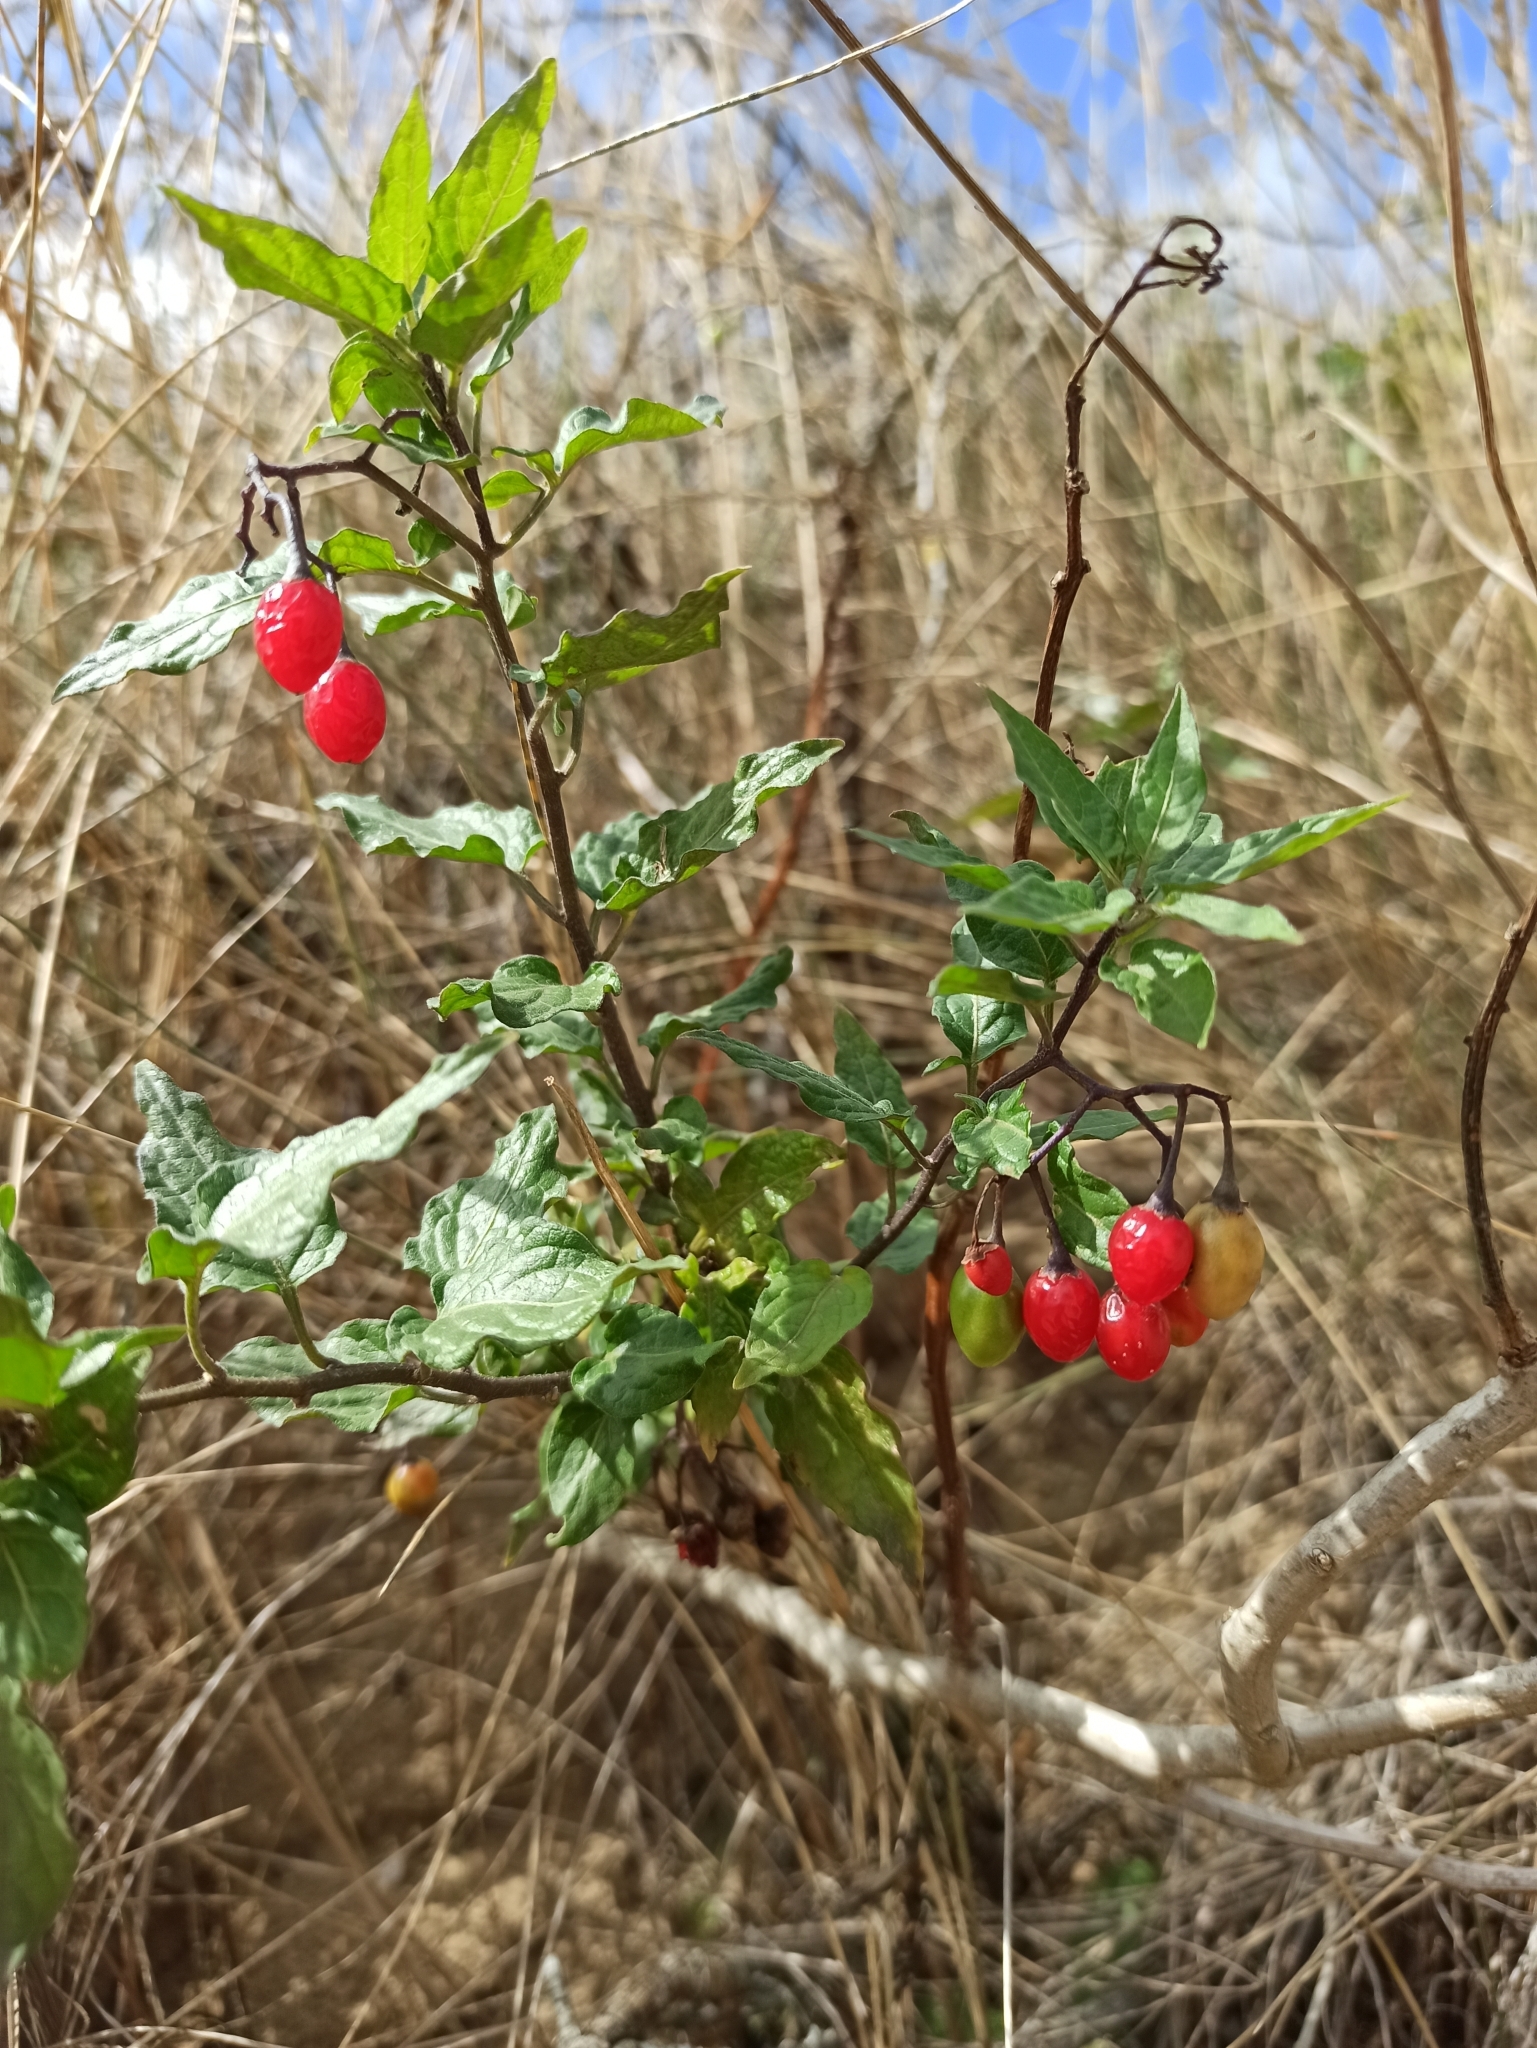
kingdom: Plantae
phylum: Tracheophyta
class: Magnoliopsida
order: Solanales
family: Solanaceae
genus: Solanum
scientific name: Solanum dulcamara
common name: Climbing nightshade
